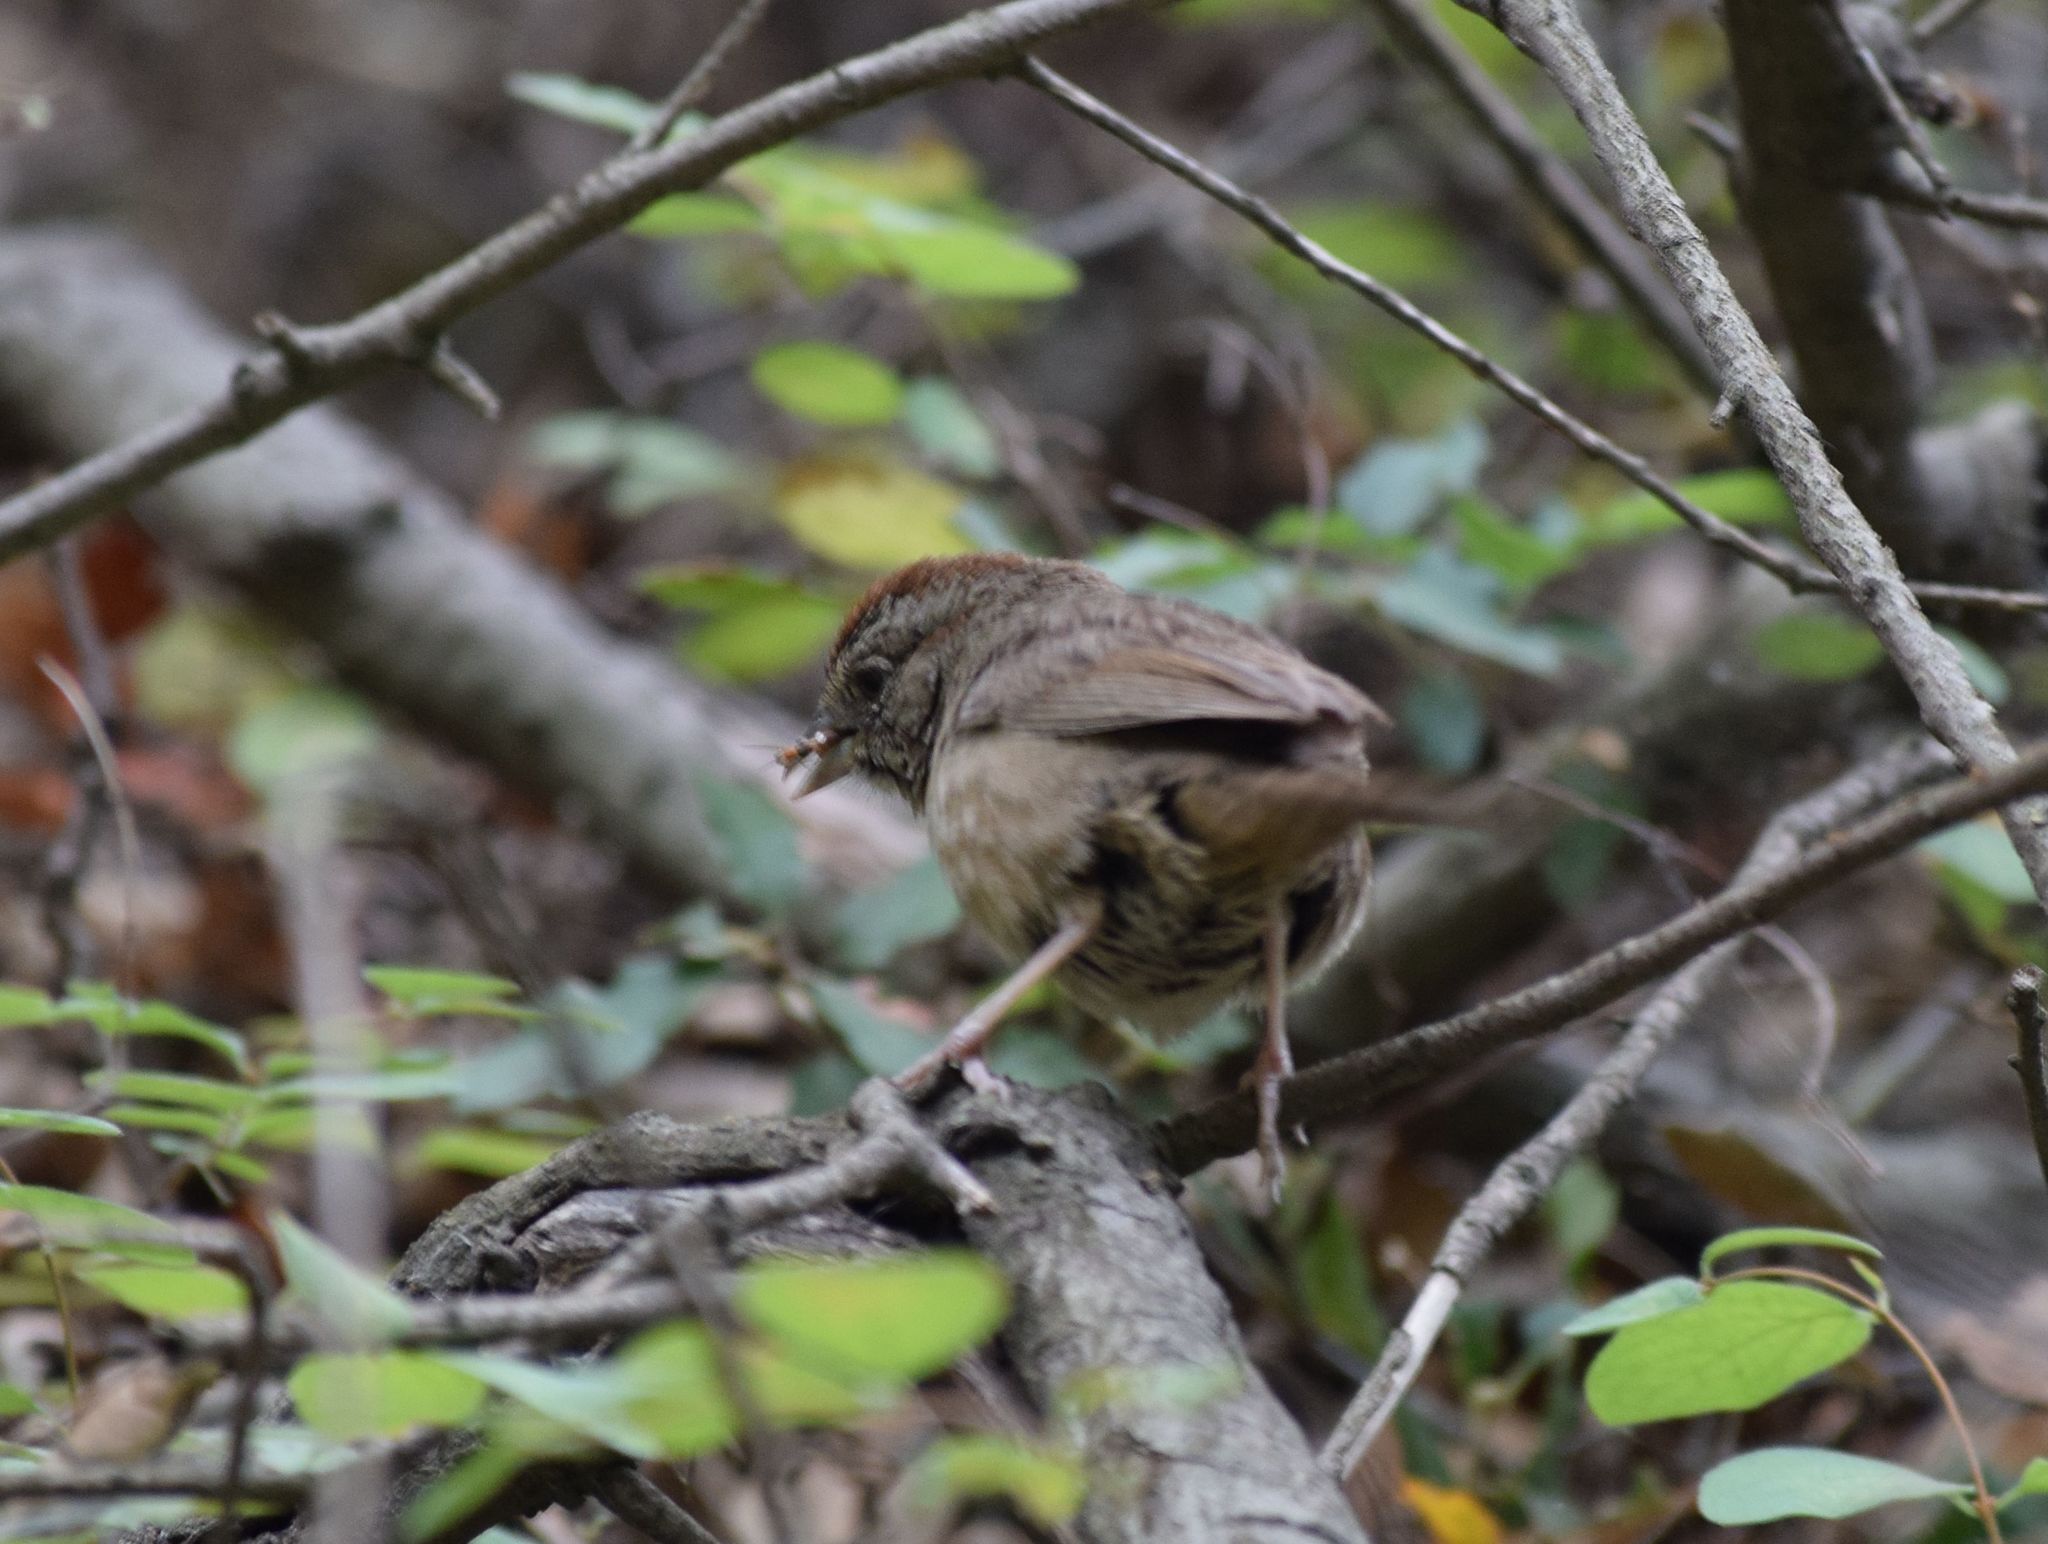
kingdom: Animalia
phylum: Chordata
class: Aves
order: Passeriformes
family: Passerellidae
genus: Aimophila
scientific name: Aimophila ruficeps
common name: Rufous-crowned sparrow
